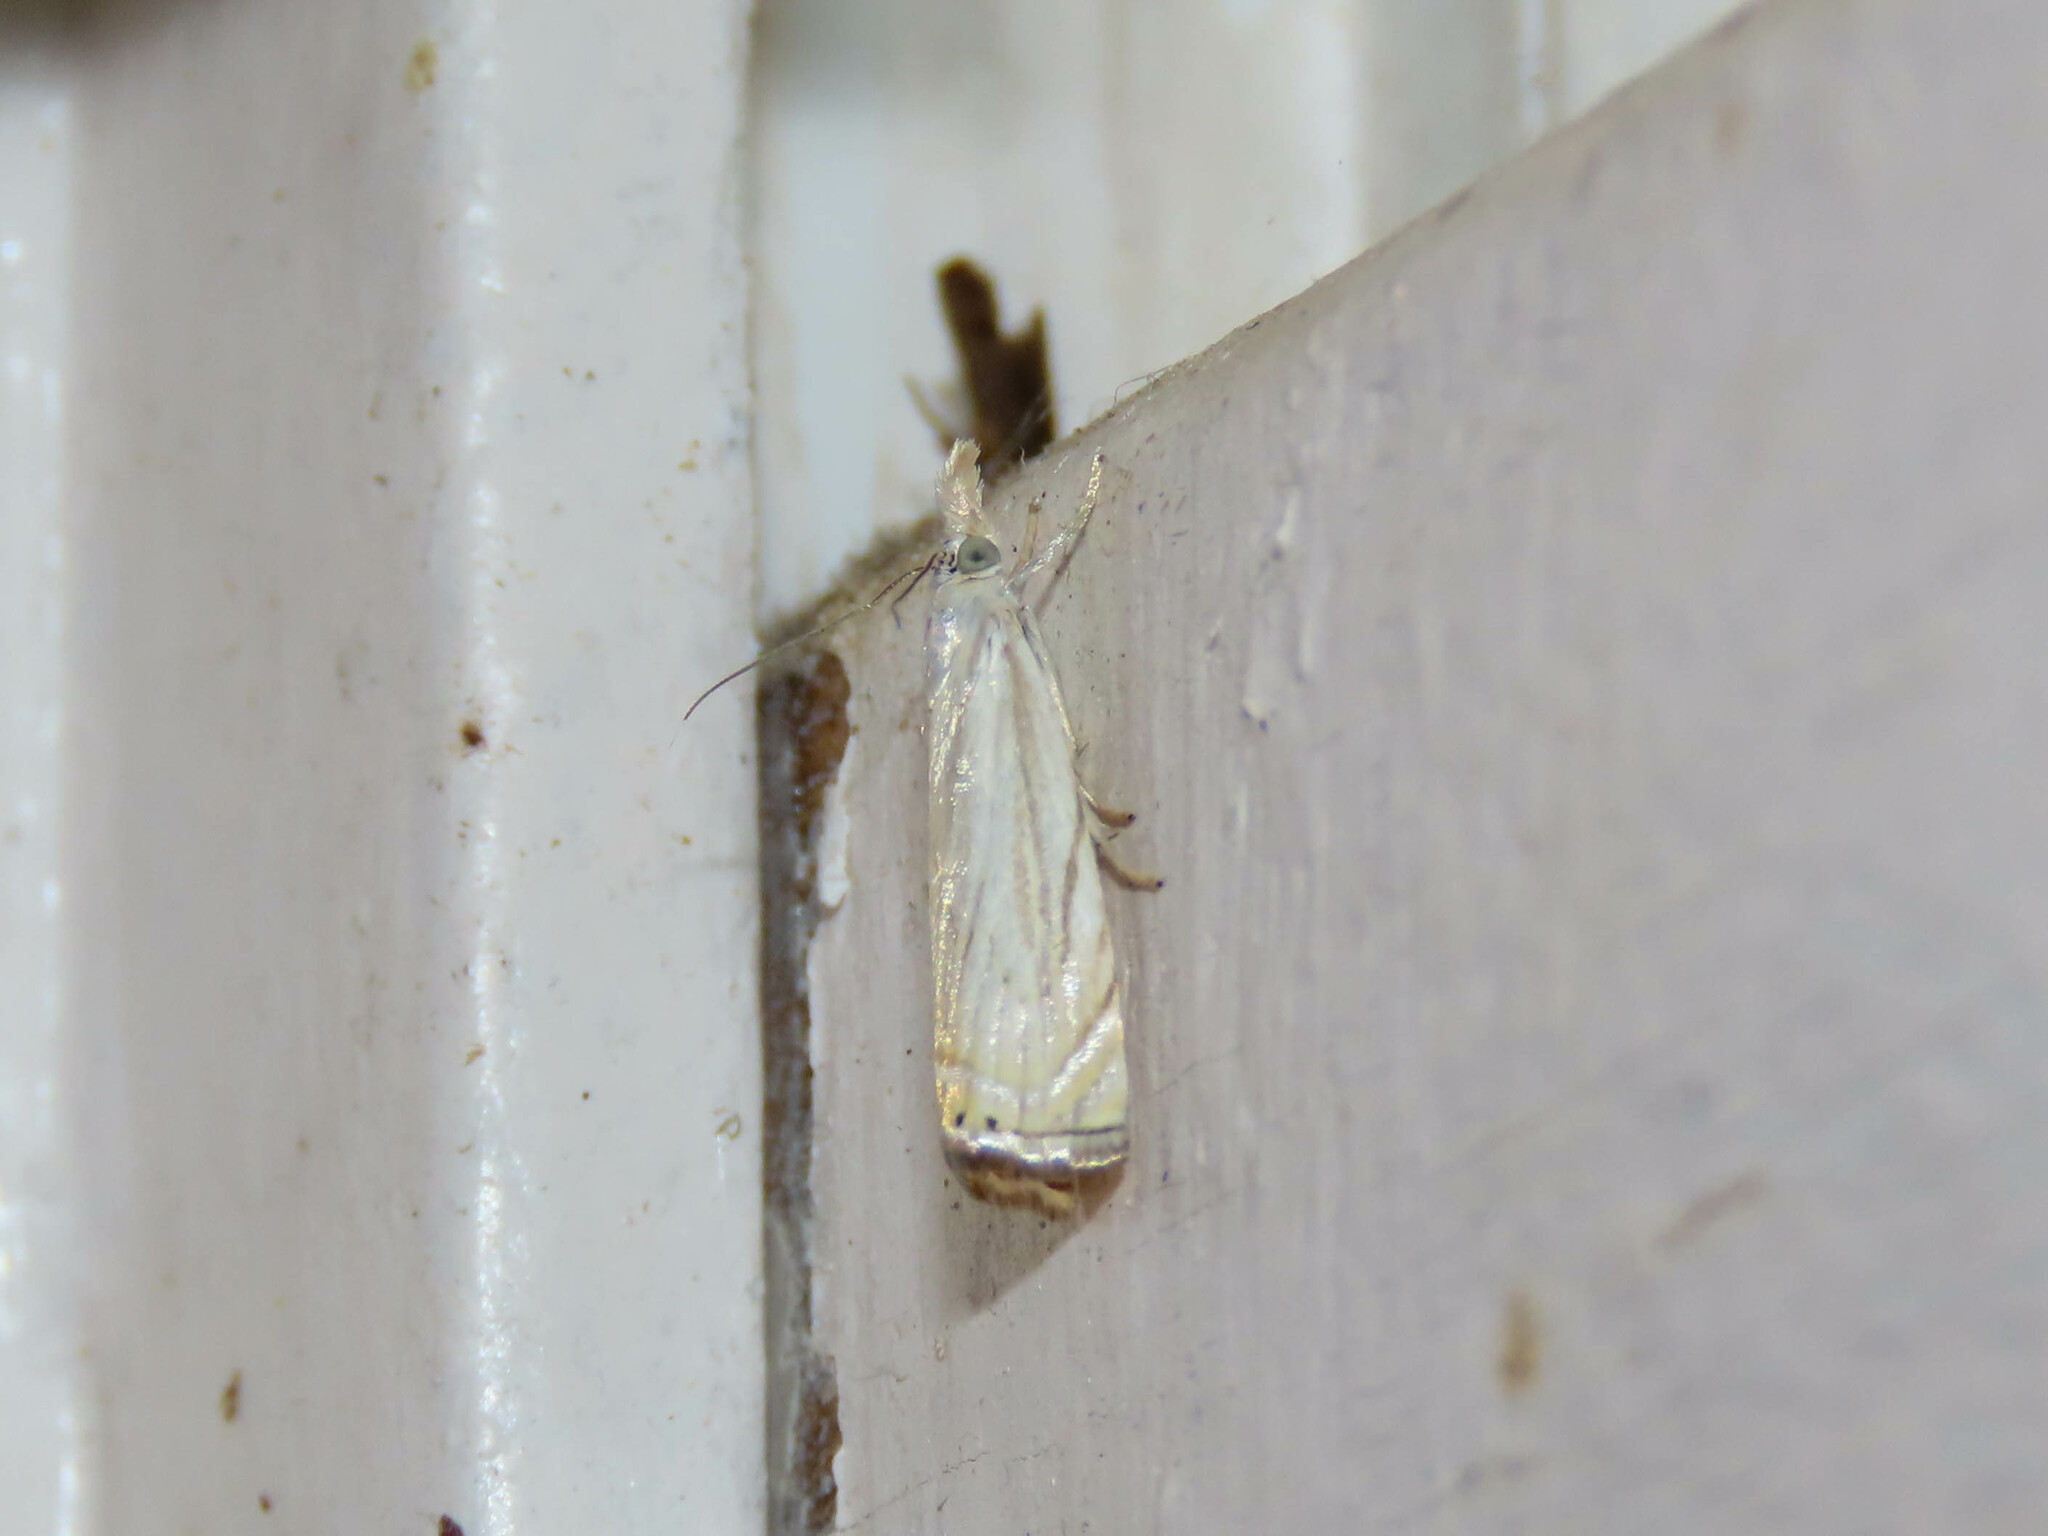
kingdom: Animalia
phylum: Arthropoda
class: Insecta
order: Lepidoptera
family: Crambidae
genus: Chrysoteuchia
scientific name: Chrysoteuchia topiarius
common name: Topiary grass-veneer
